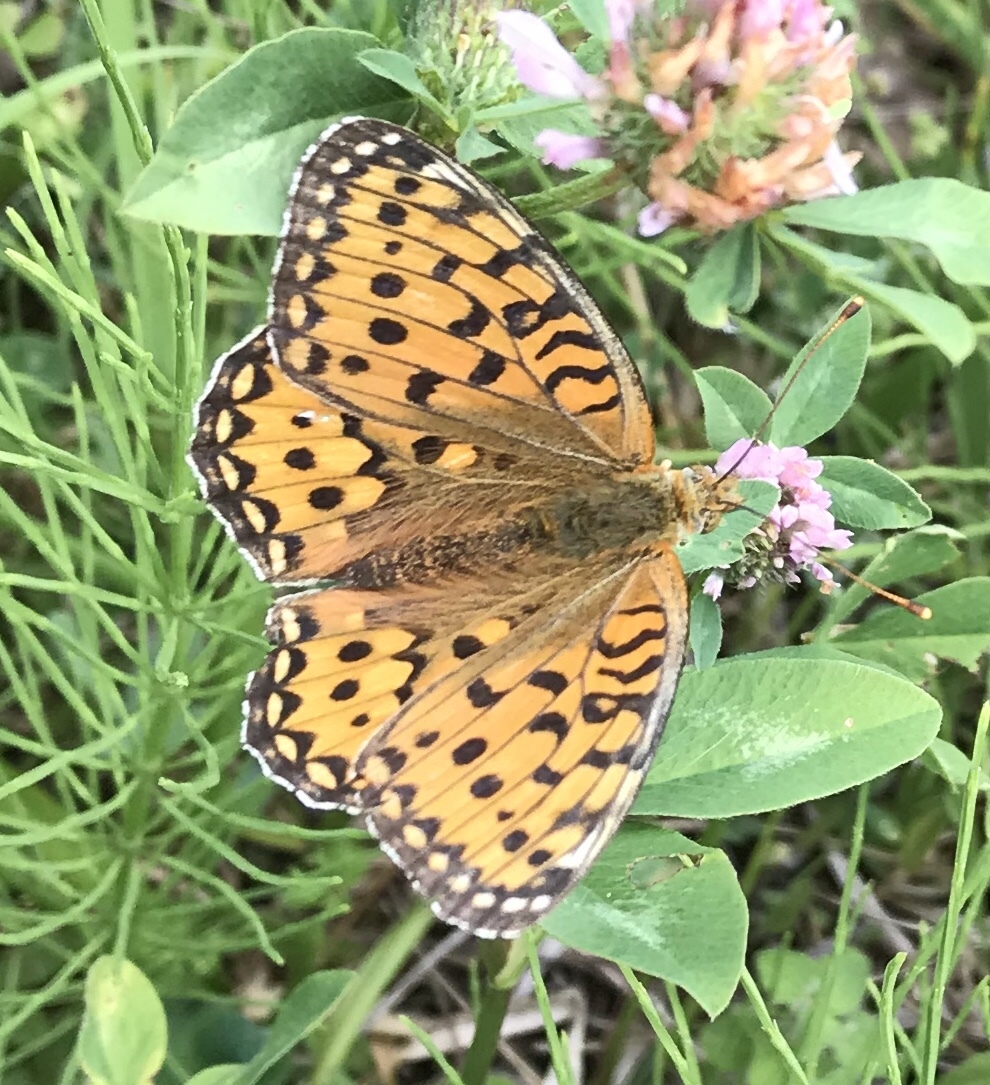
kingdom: Animalia
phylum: Arthropoda
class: Insecta
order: Lepidoptera
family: Nymphalidae
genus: Speyeria
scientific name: Speyeria aglaja
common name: Dark green fritillary
